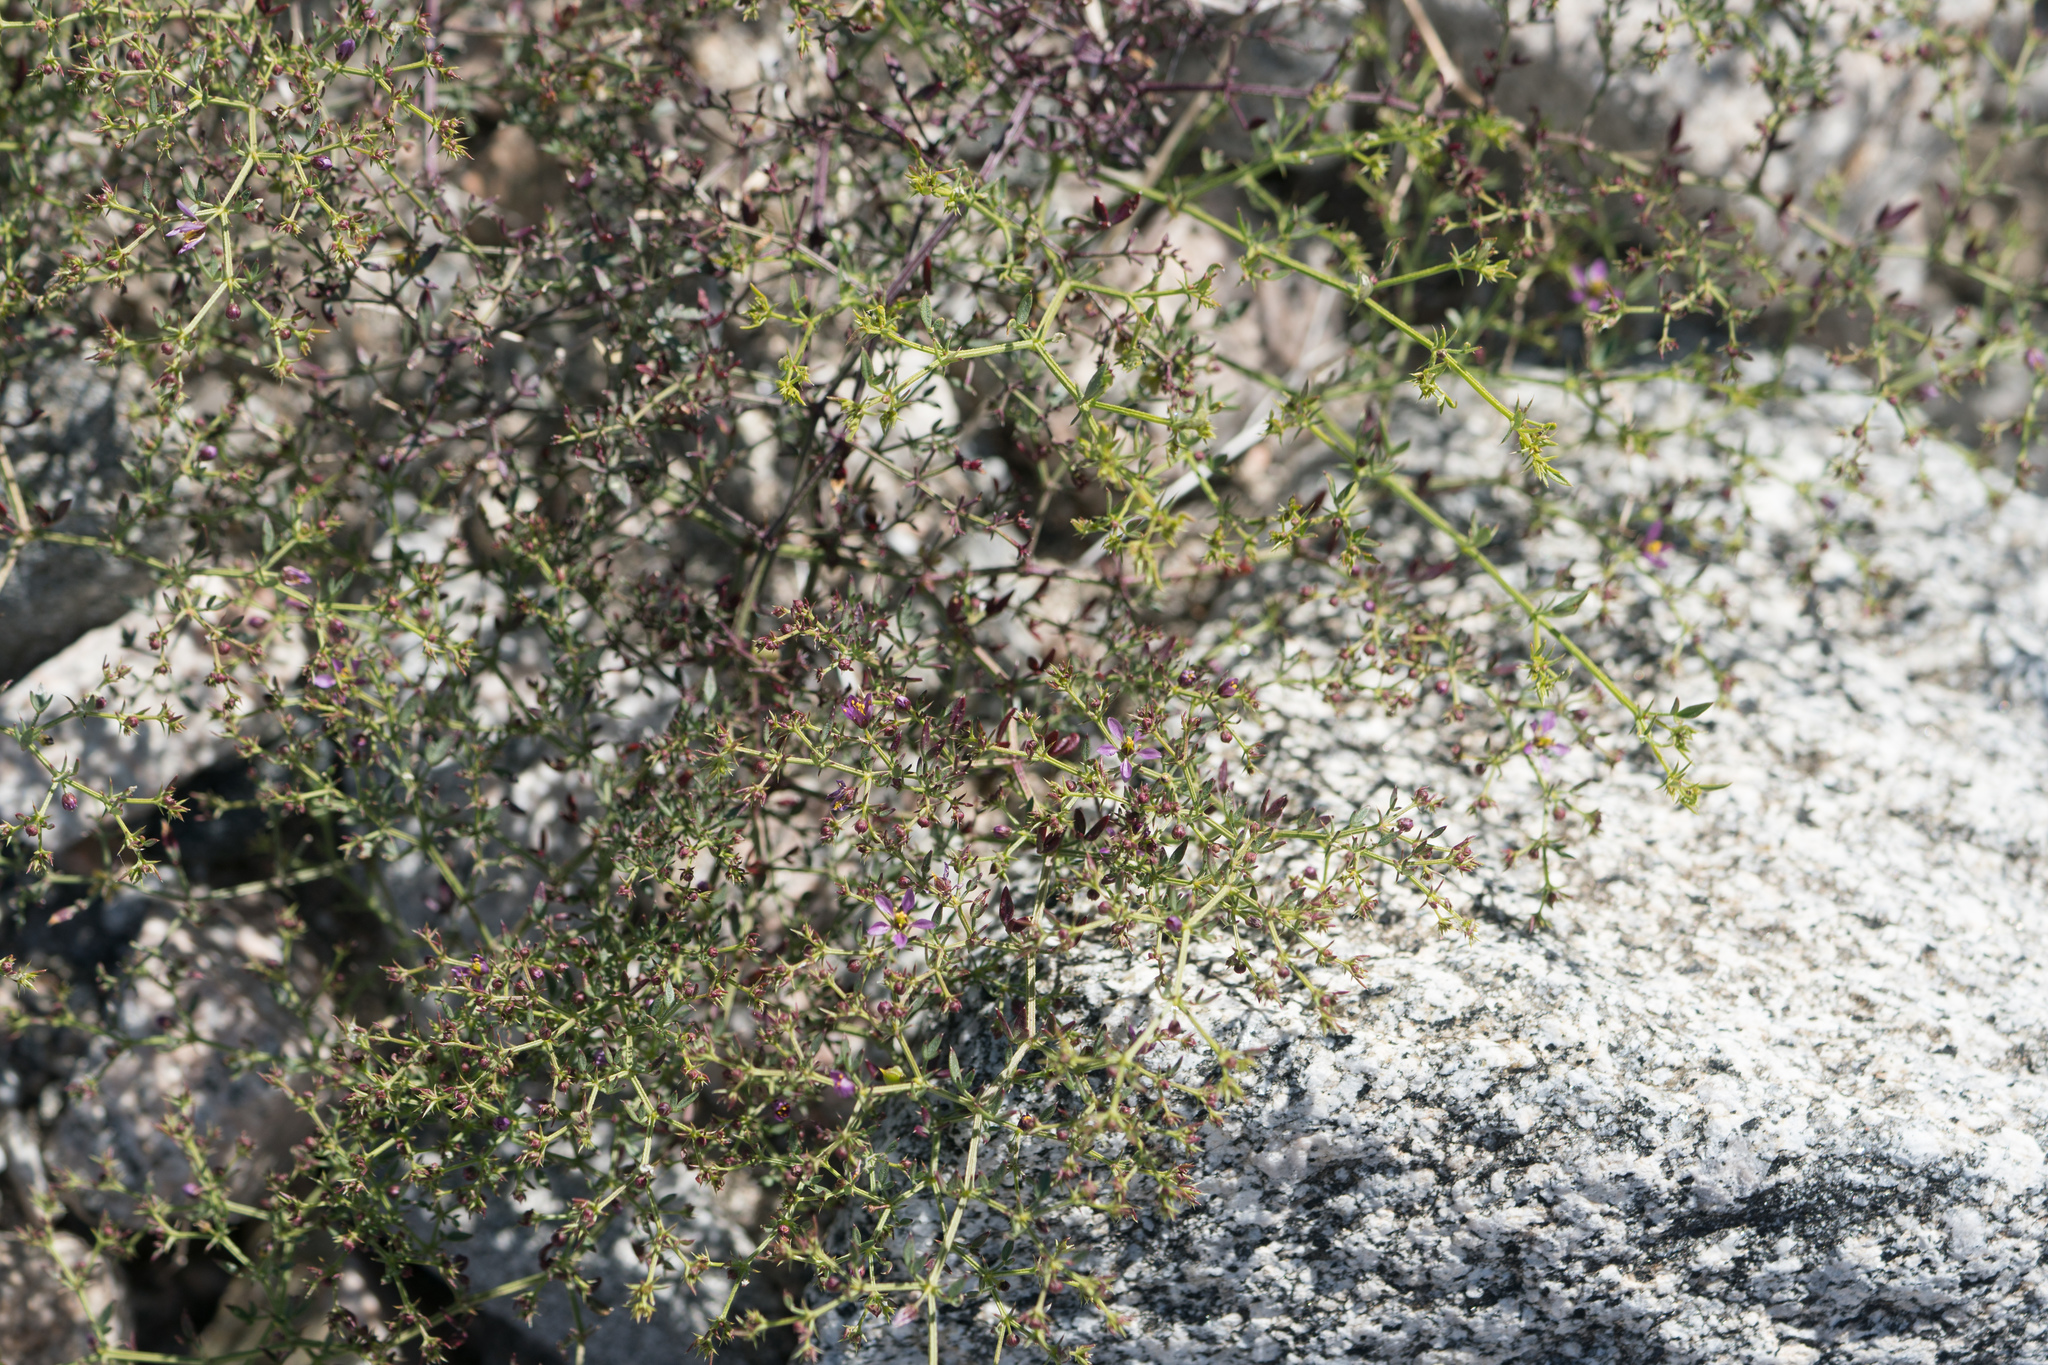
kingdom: Plantae
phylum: Tracheophyta
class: Magnoliopsida
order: Zygophyllales
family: Zygophyllaceae
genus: Fagonia
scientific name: Fagonia laevis
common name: California fagonbush
